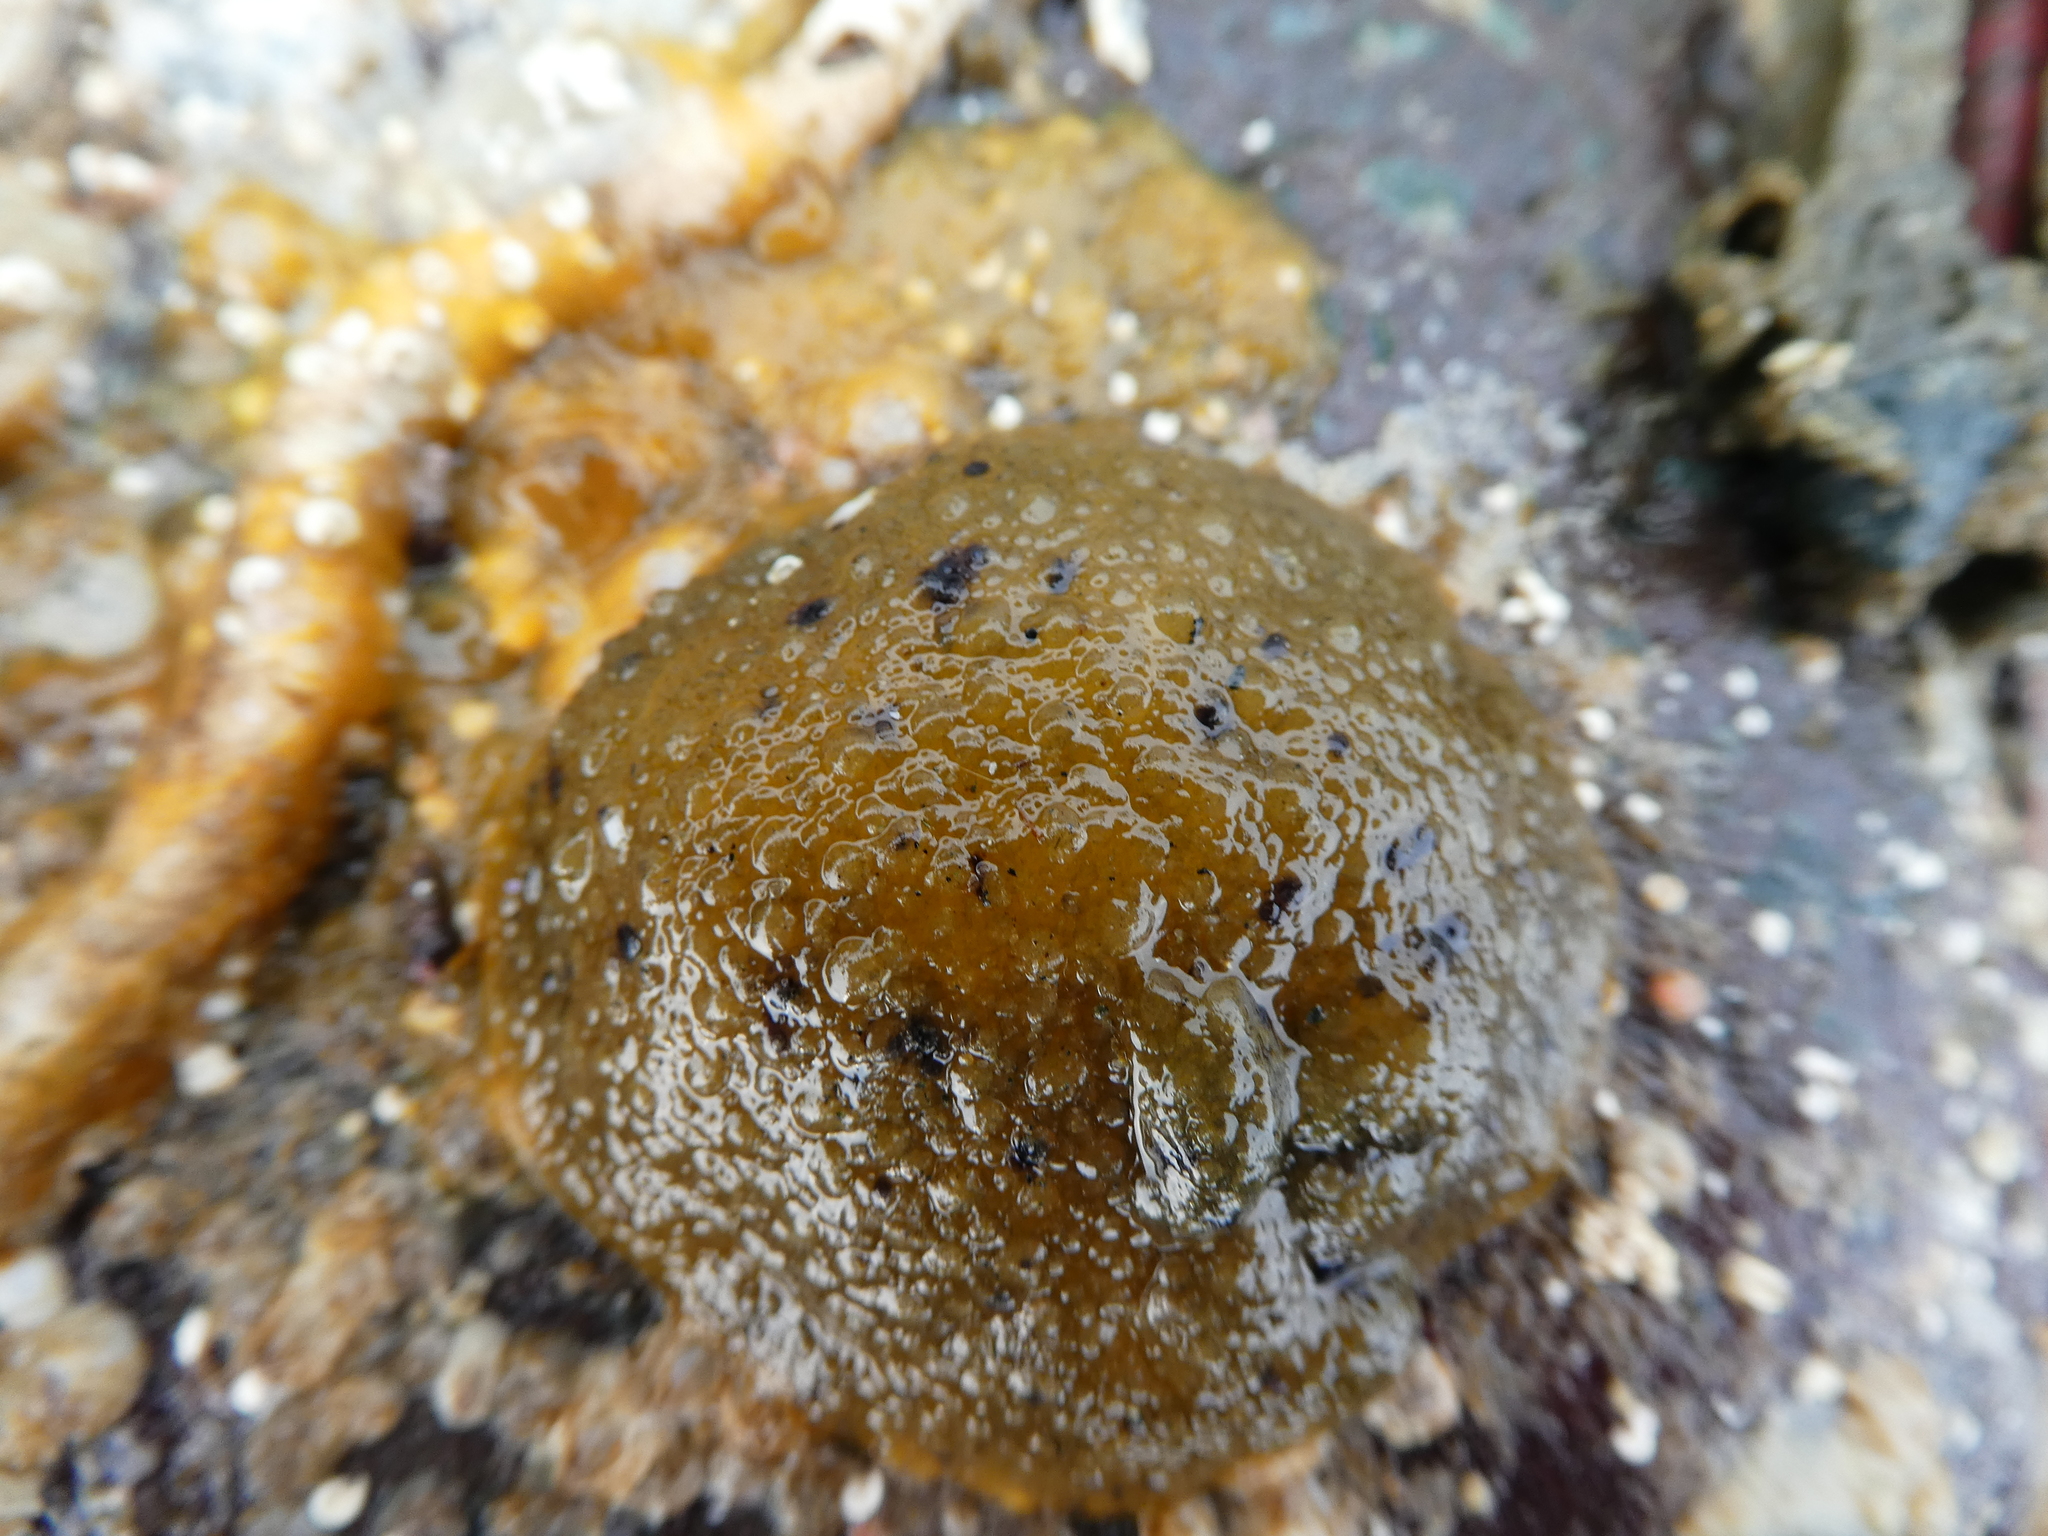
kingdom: Animalia
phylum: Mollusca
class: Gastropoda
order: Nudibranchia
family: Dorididae
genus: Doris
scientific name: Doris montereyensis
